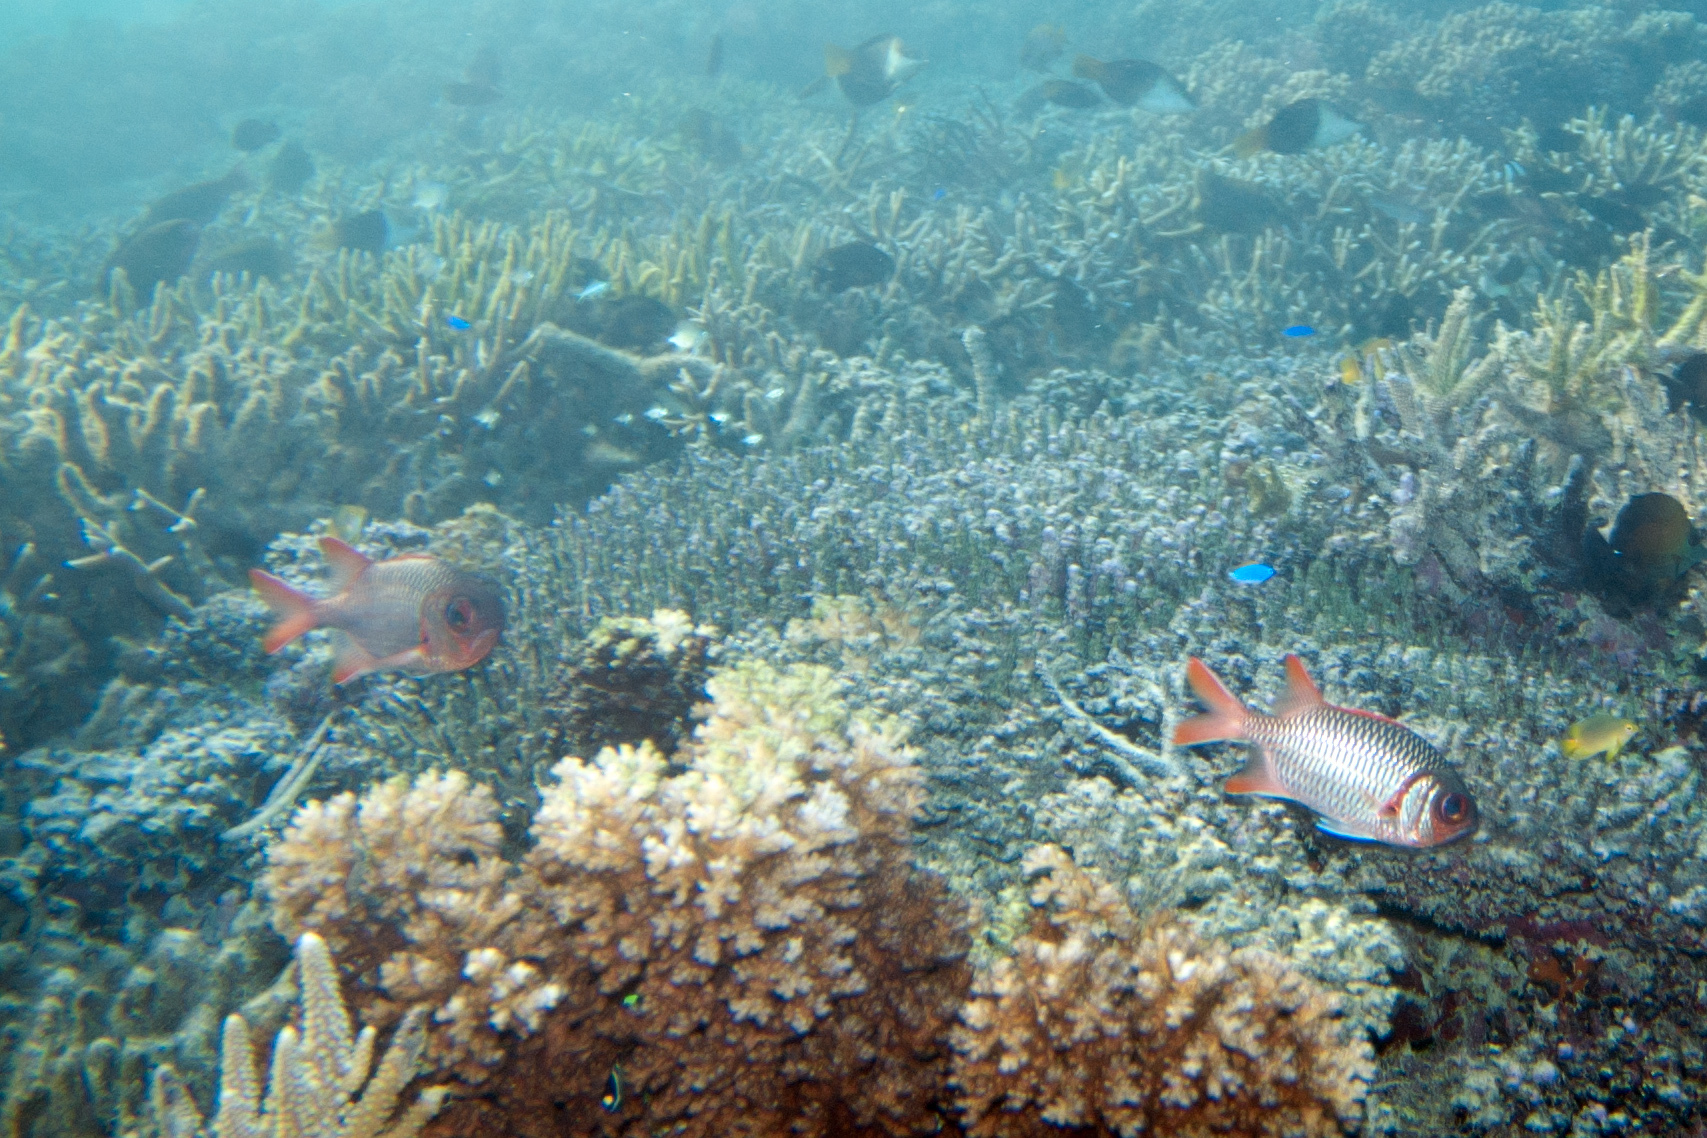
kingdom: Animalia
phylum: Chordata
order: Beryciformes
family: Holocentridae
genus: Myripristis
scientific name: Myripristis violacea
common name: Lattice soldierfish
